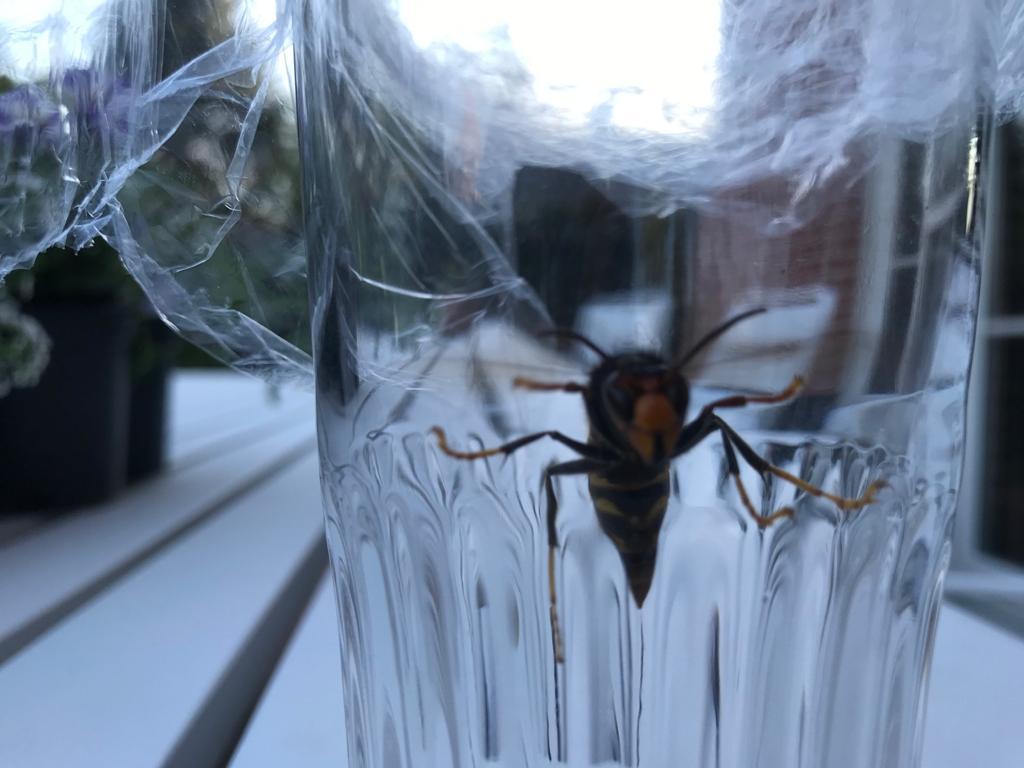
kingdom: Animalia
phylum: Arthropoda
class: Insecta
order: Hymenoptera
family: Vespidae
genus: Vespa
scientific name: Vespa velutina
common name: Asian hornet
